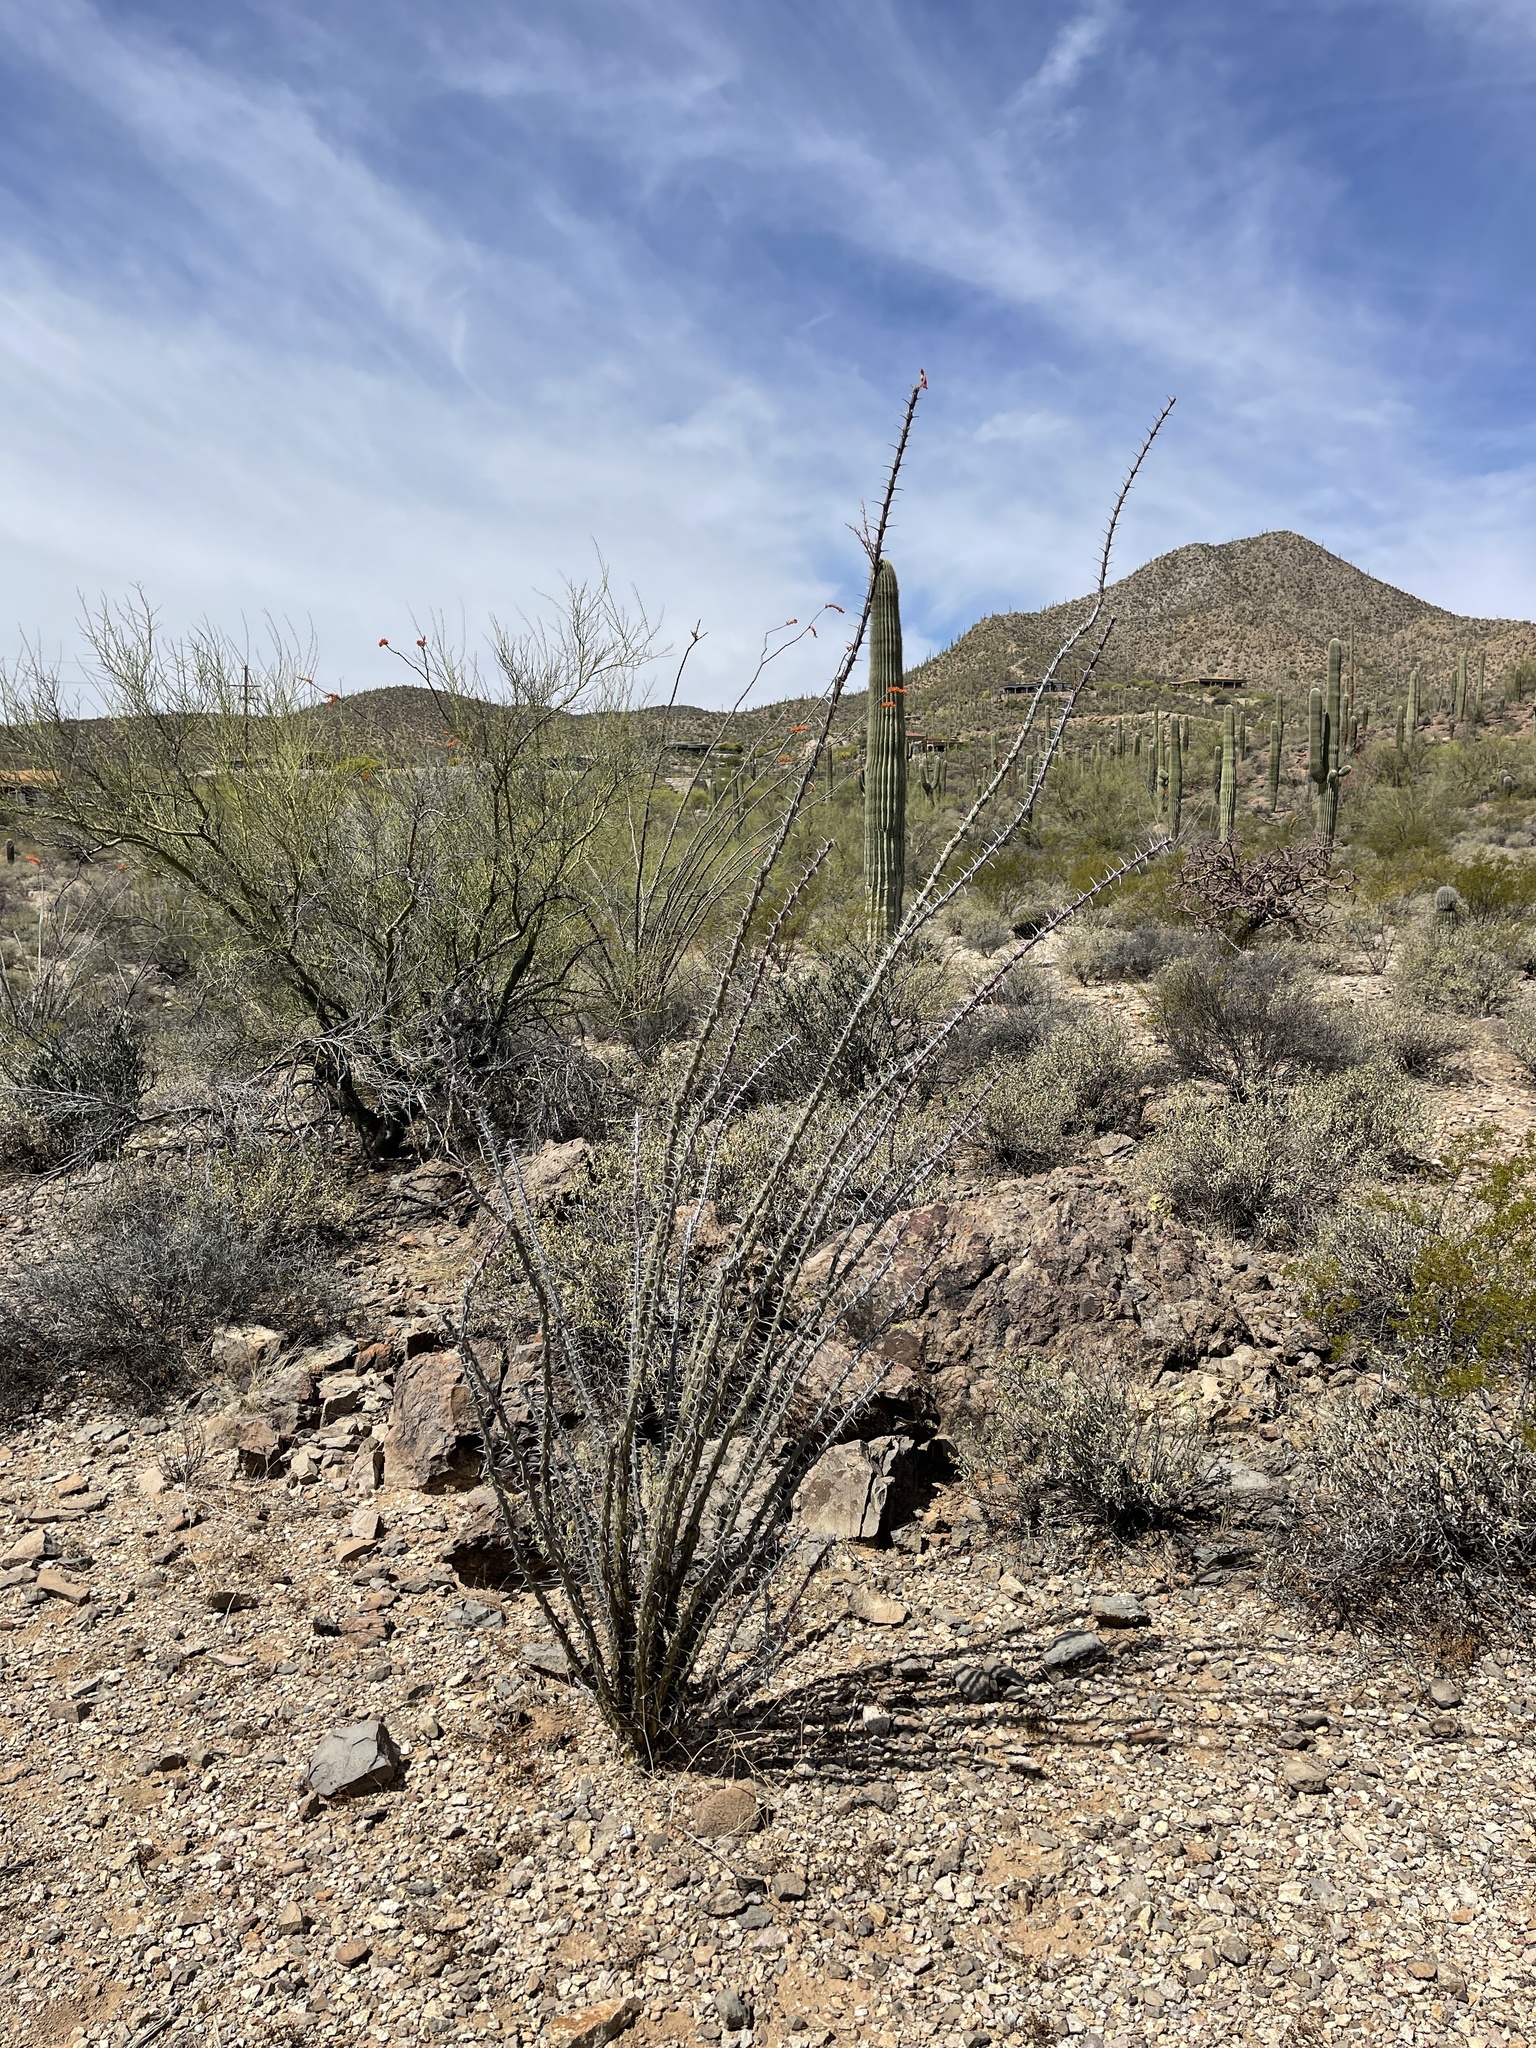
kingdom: Plantae
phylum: Tracheophyta
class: Magnoliopsida
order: Ericales
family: Fouquieriaceae
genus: Fouquieria
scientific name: Fouquieria splendens
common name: Vine-cactus
